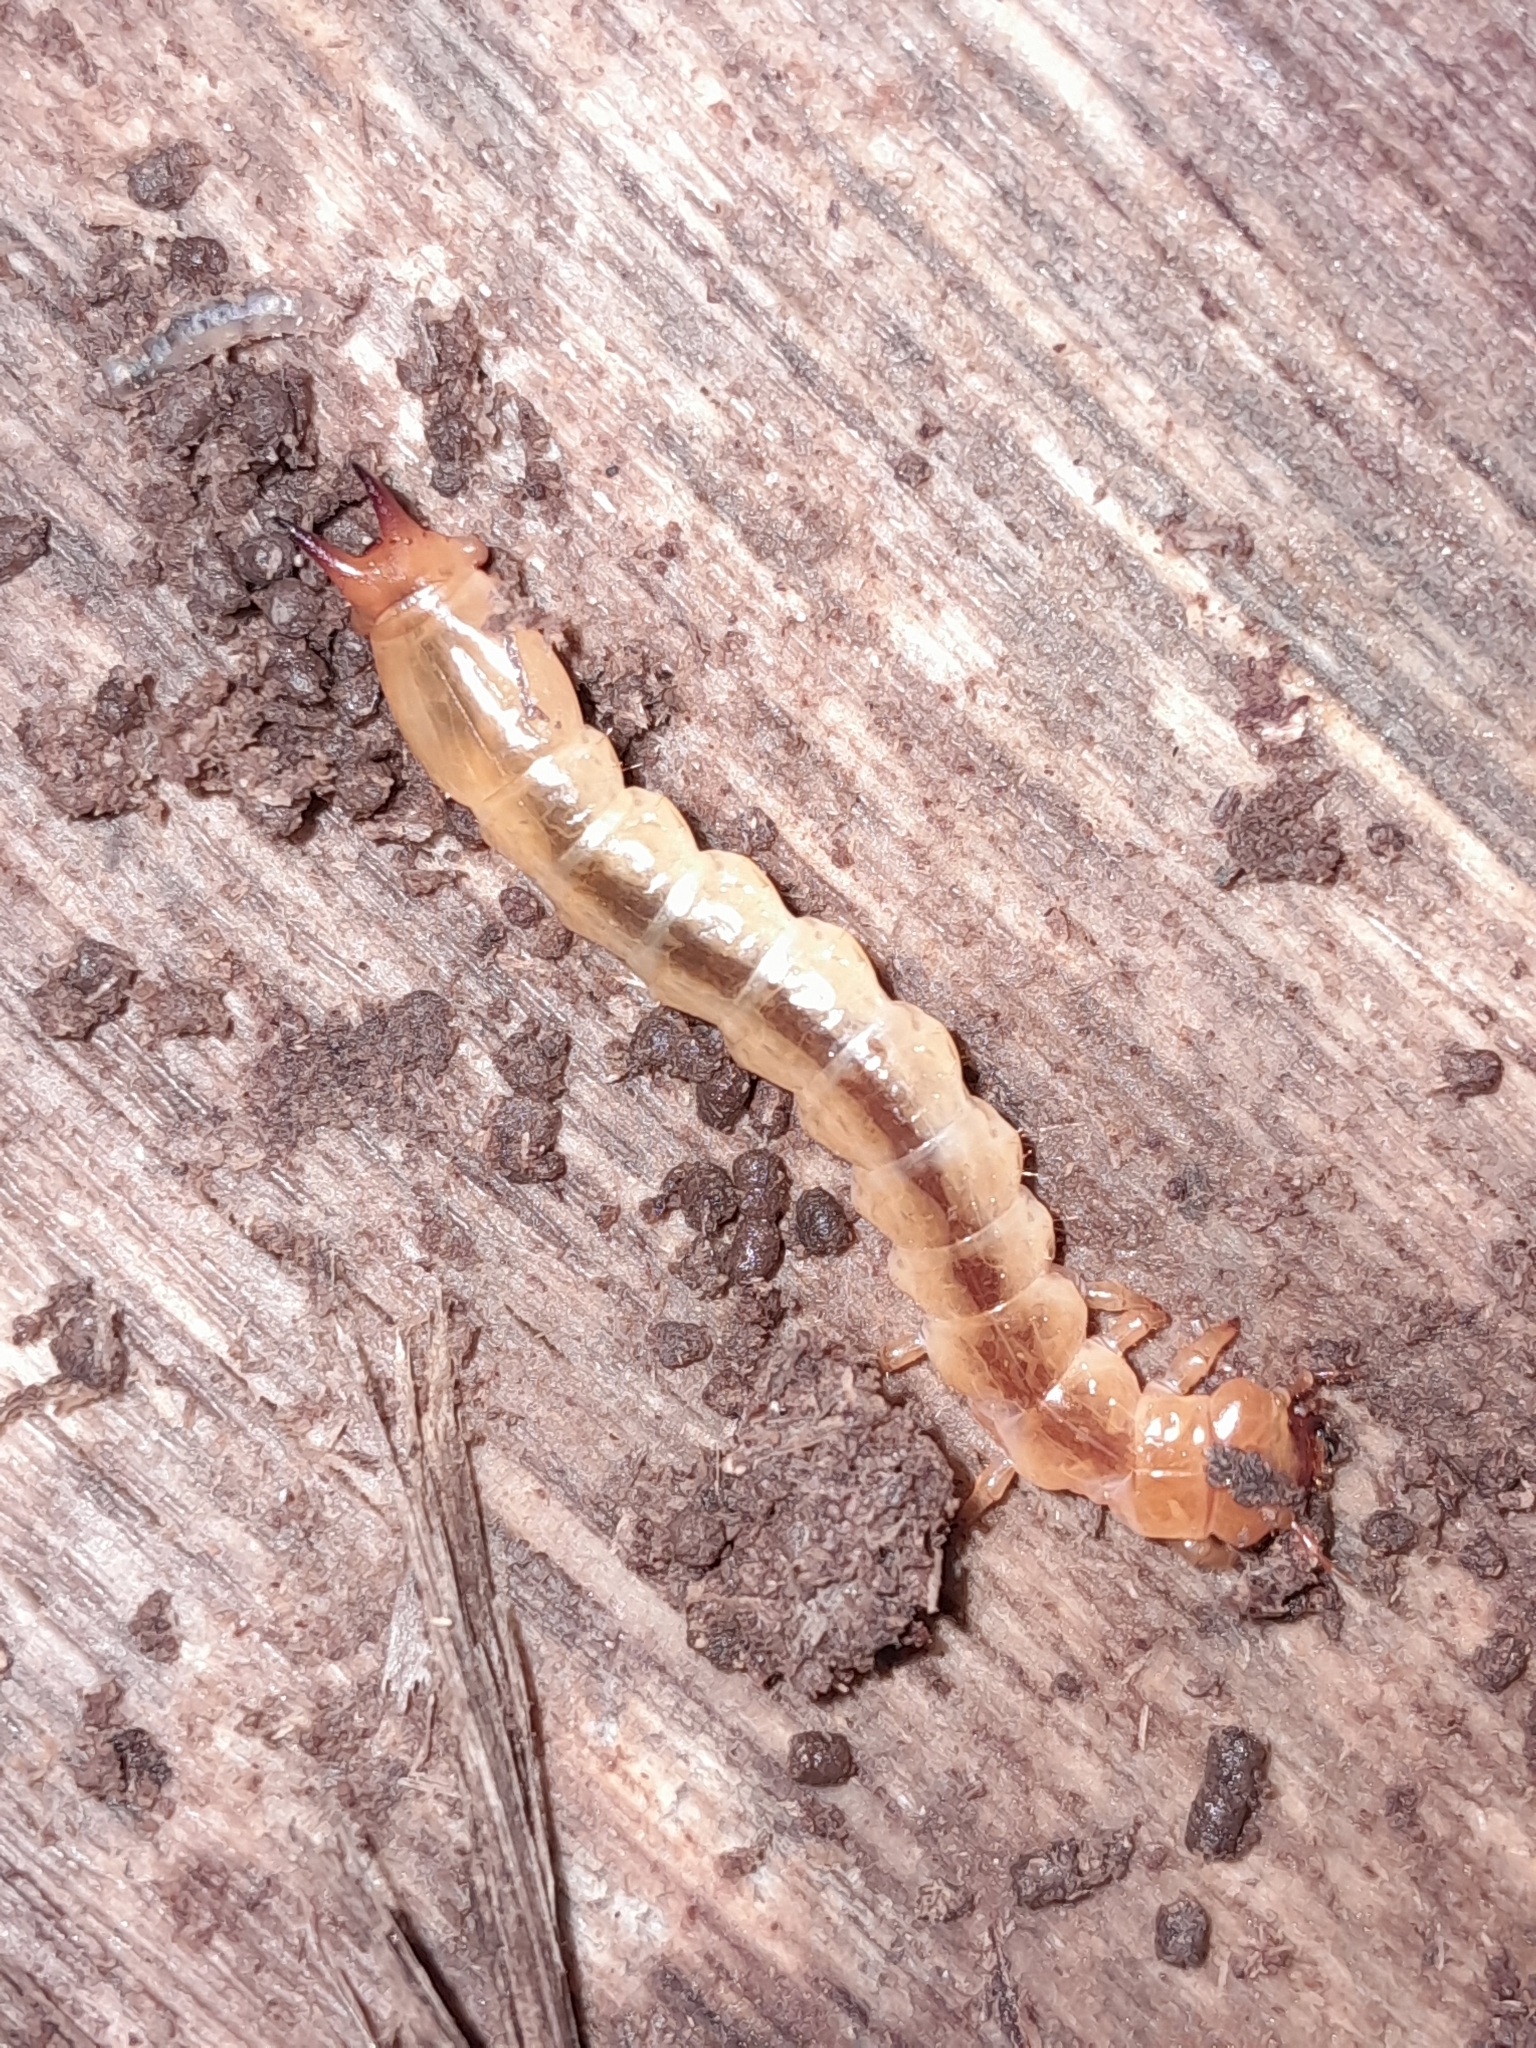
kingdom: Animalia
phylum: Arthropoda
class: Insecta
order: Coleoptera
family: Pyrochroidae
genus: Pyrochroa
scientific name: Pyrochroa coccinea
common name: Black-headed cardinal beetle
